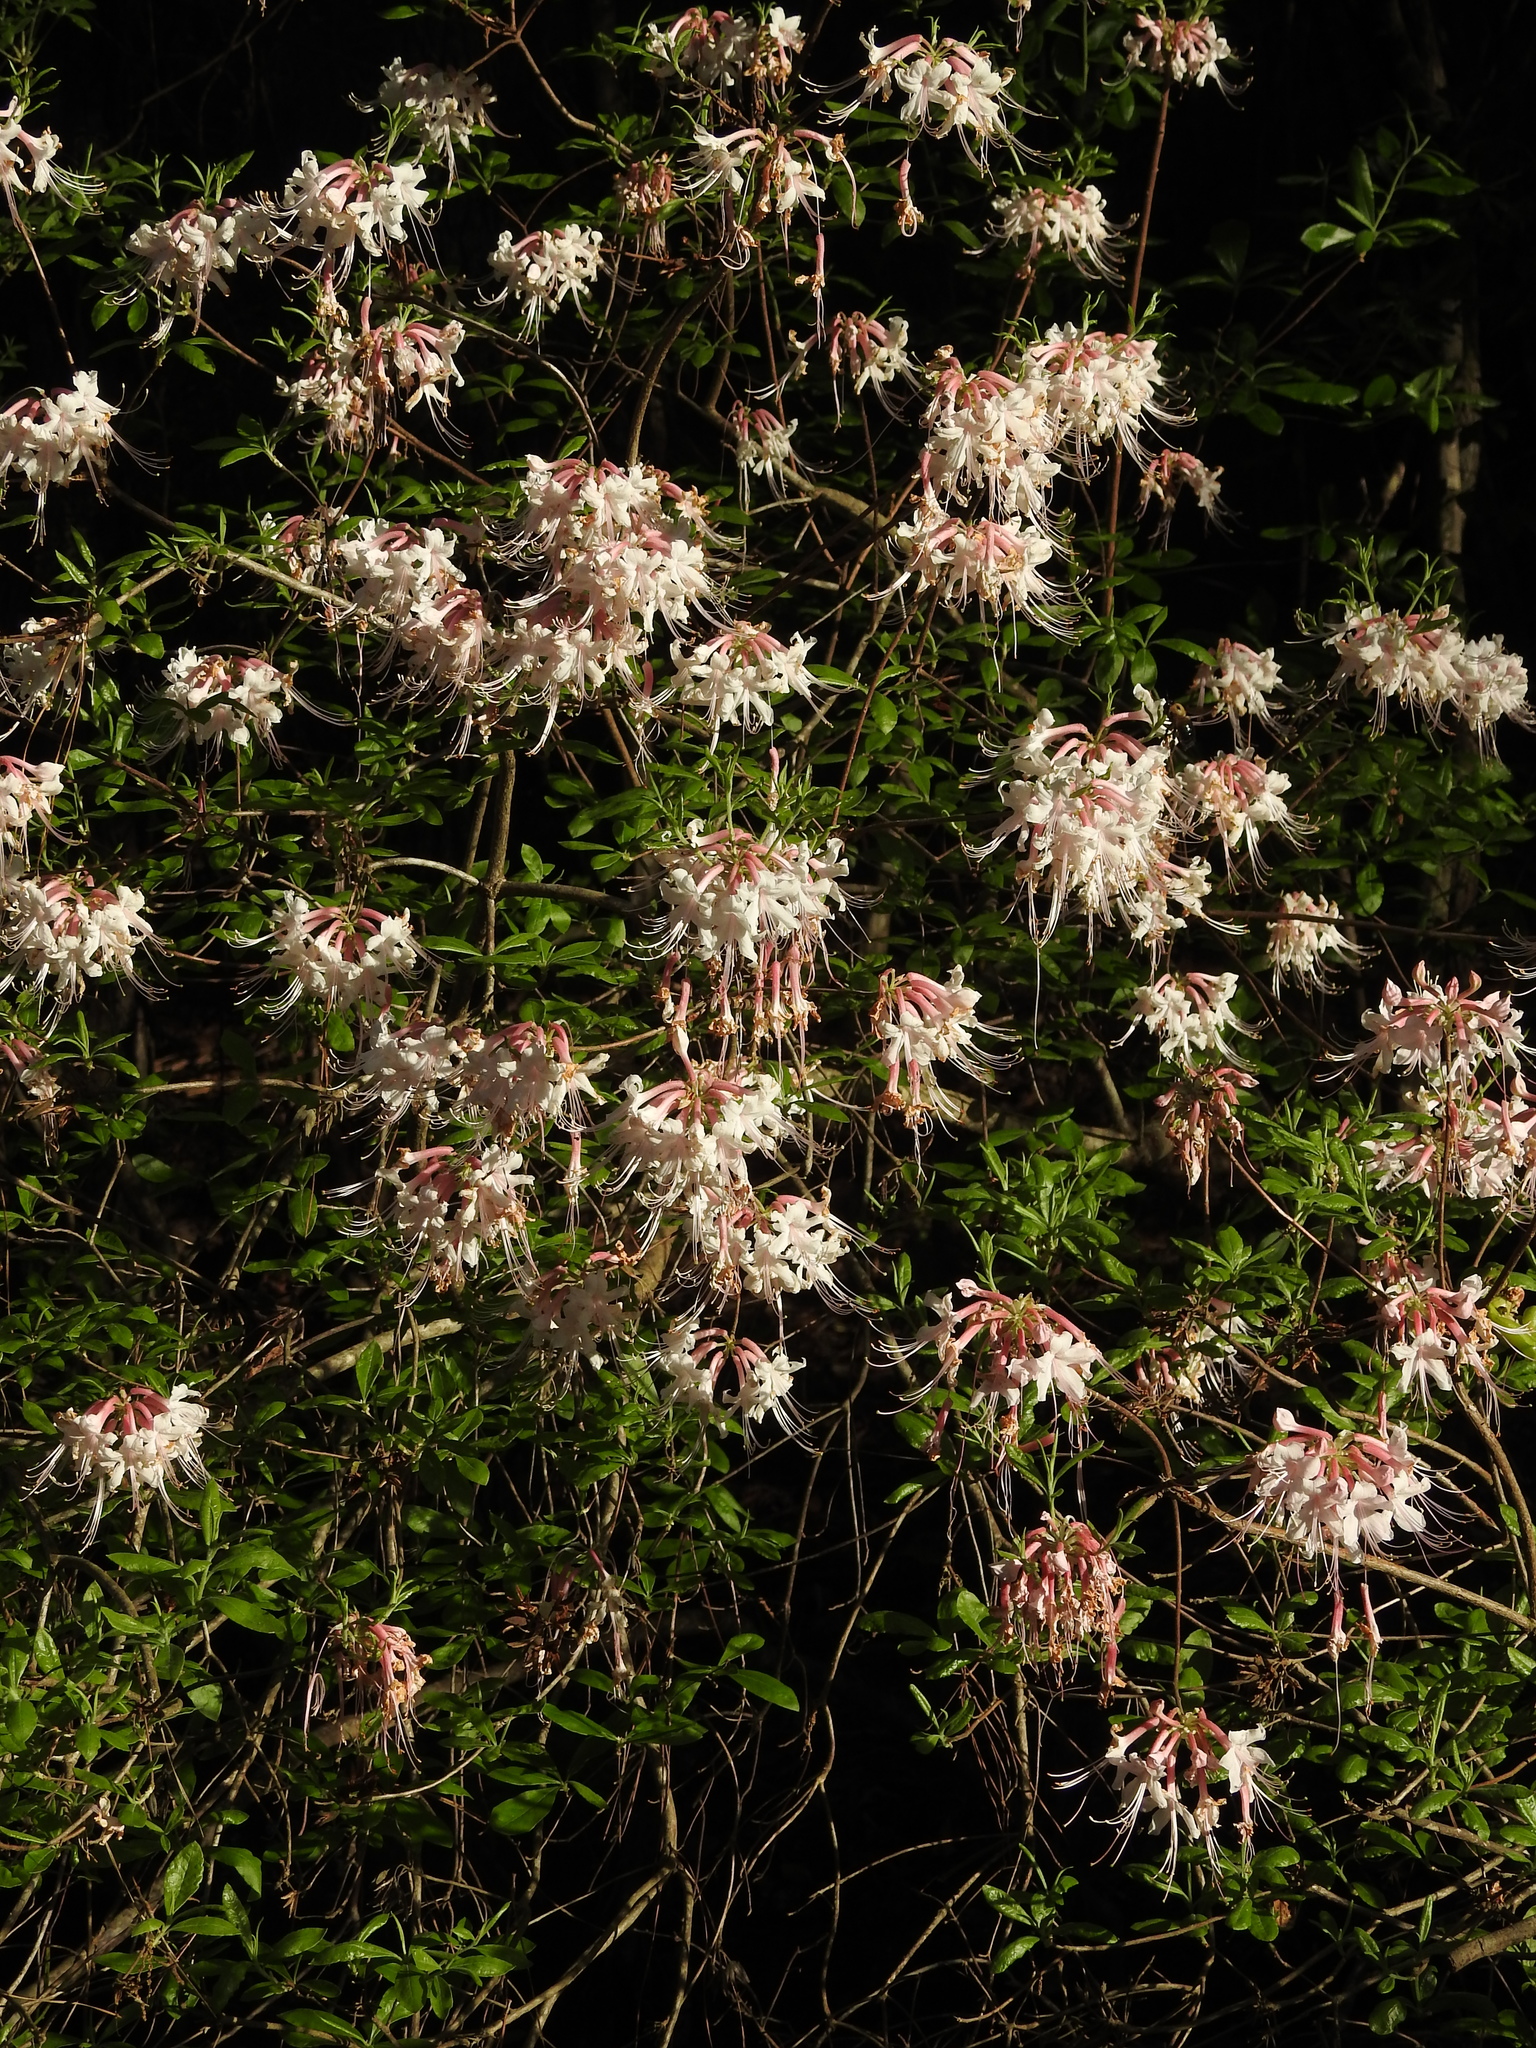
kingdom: Plantae
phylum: Tracheophyta
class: Magnoliopsida
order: Ericales
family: Ericaceae
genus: Rhododendron
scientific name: Rhododendron canescens
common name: Mountain azalea
